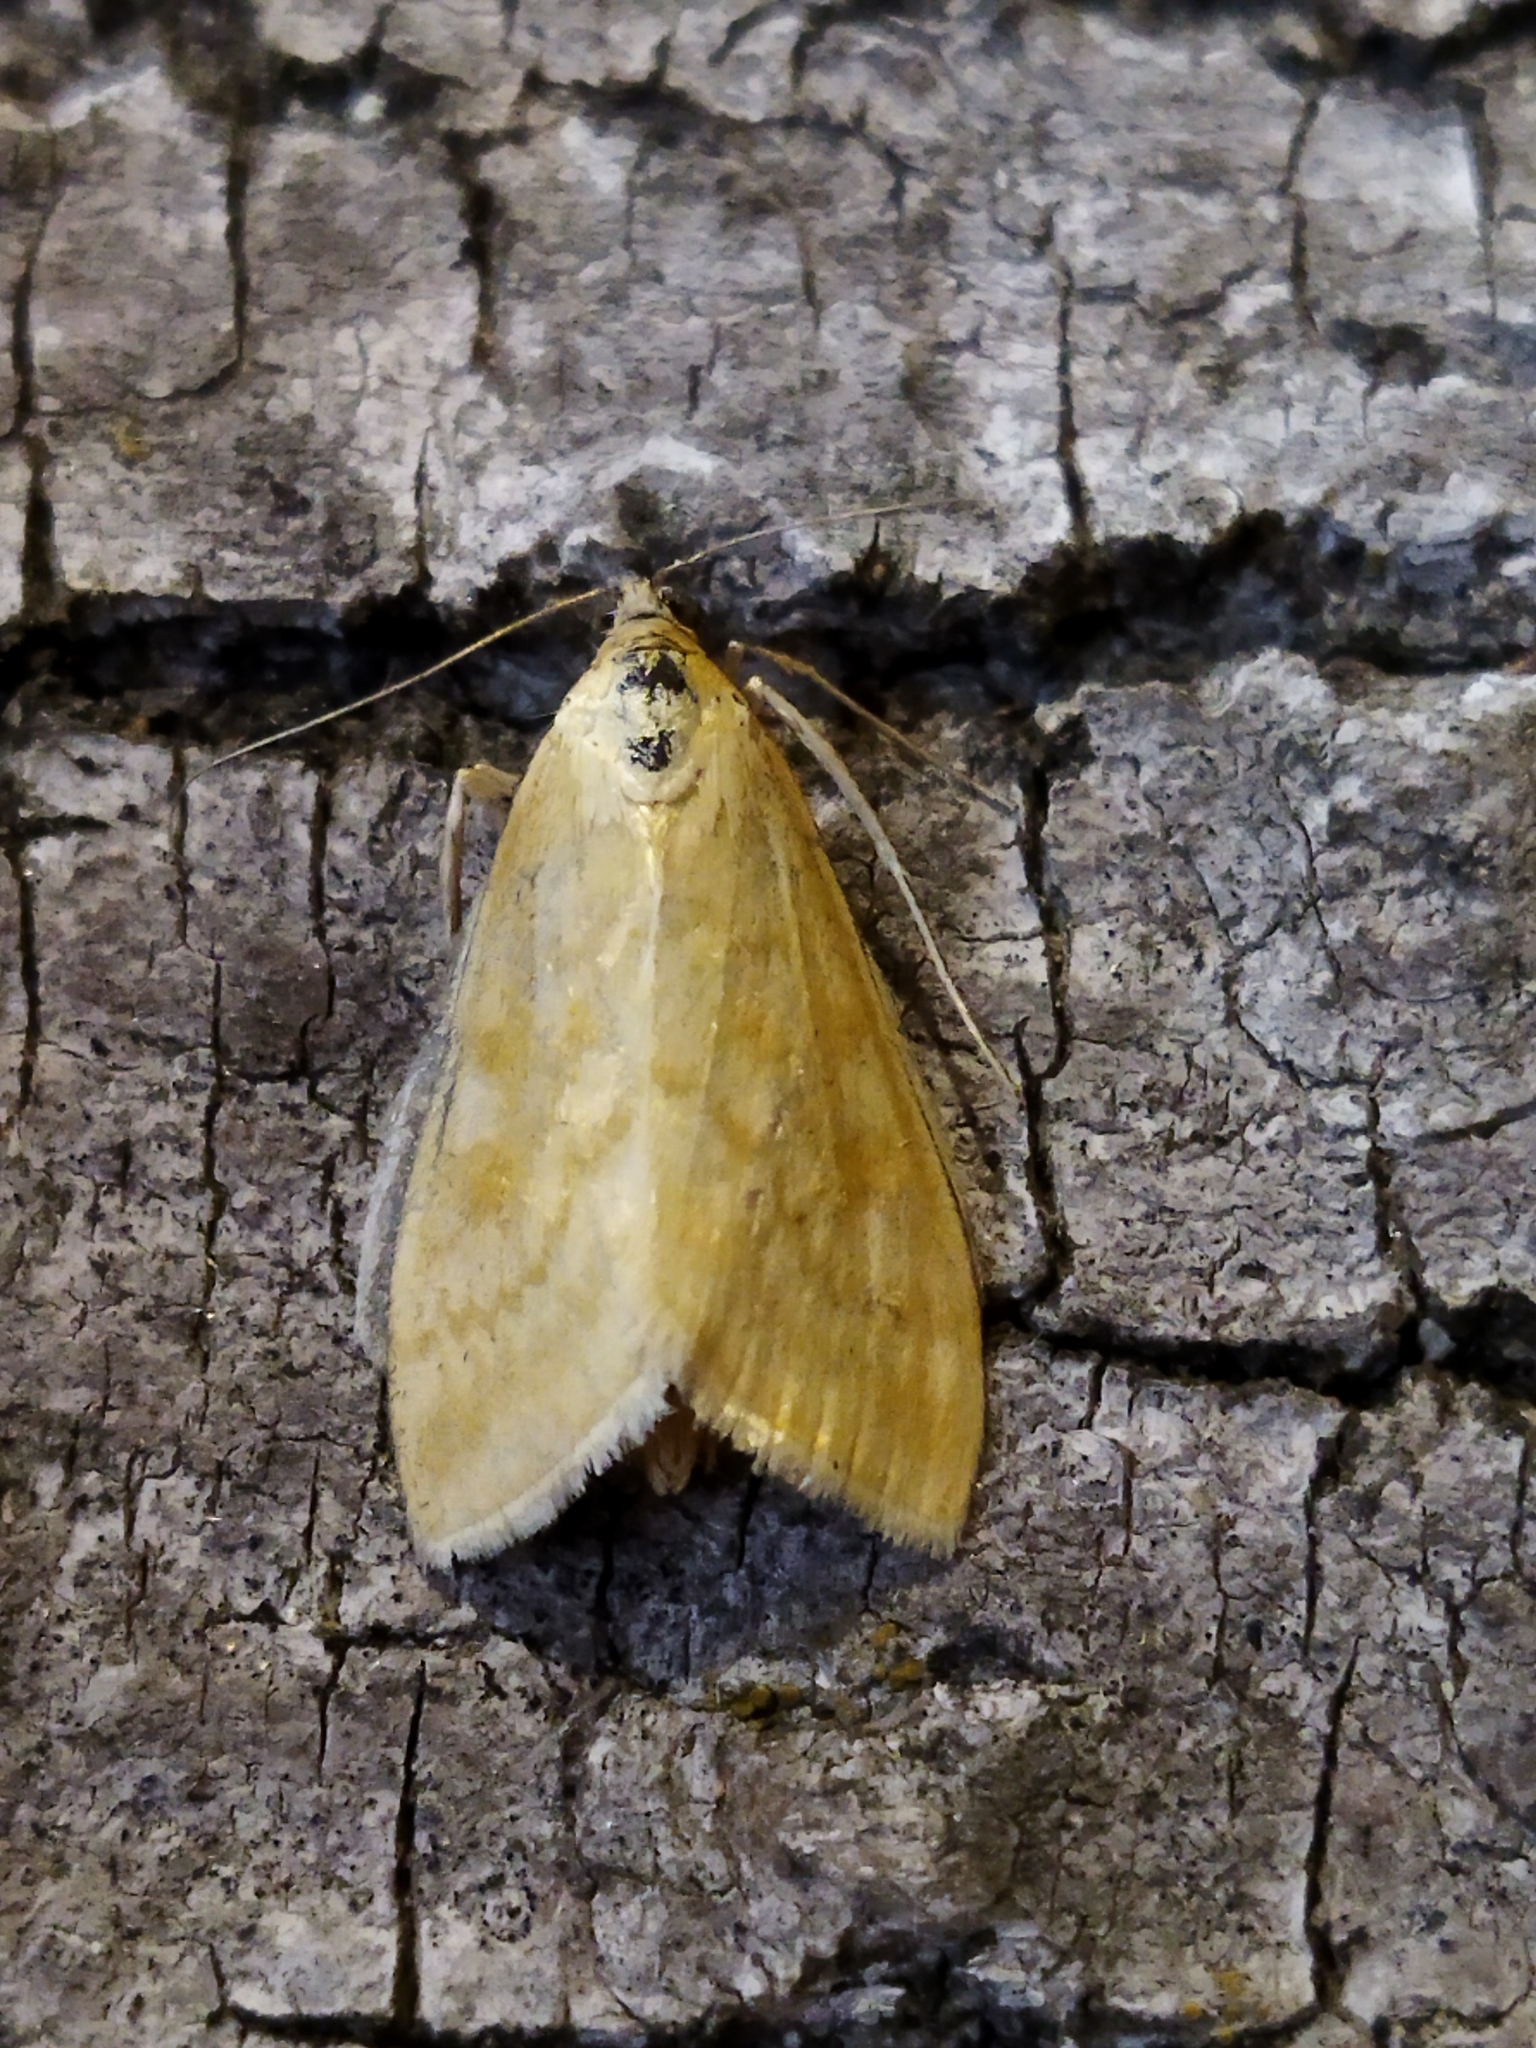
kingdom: Animalia
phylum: Arthropoda
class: Insecta
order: Lepidoptera
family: Crambidae
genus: Sitochroa
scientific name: Sitochroa verticalis
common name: Lesser pearl
